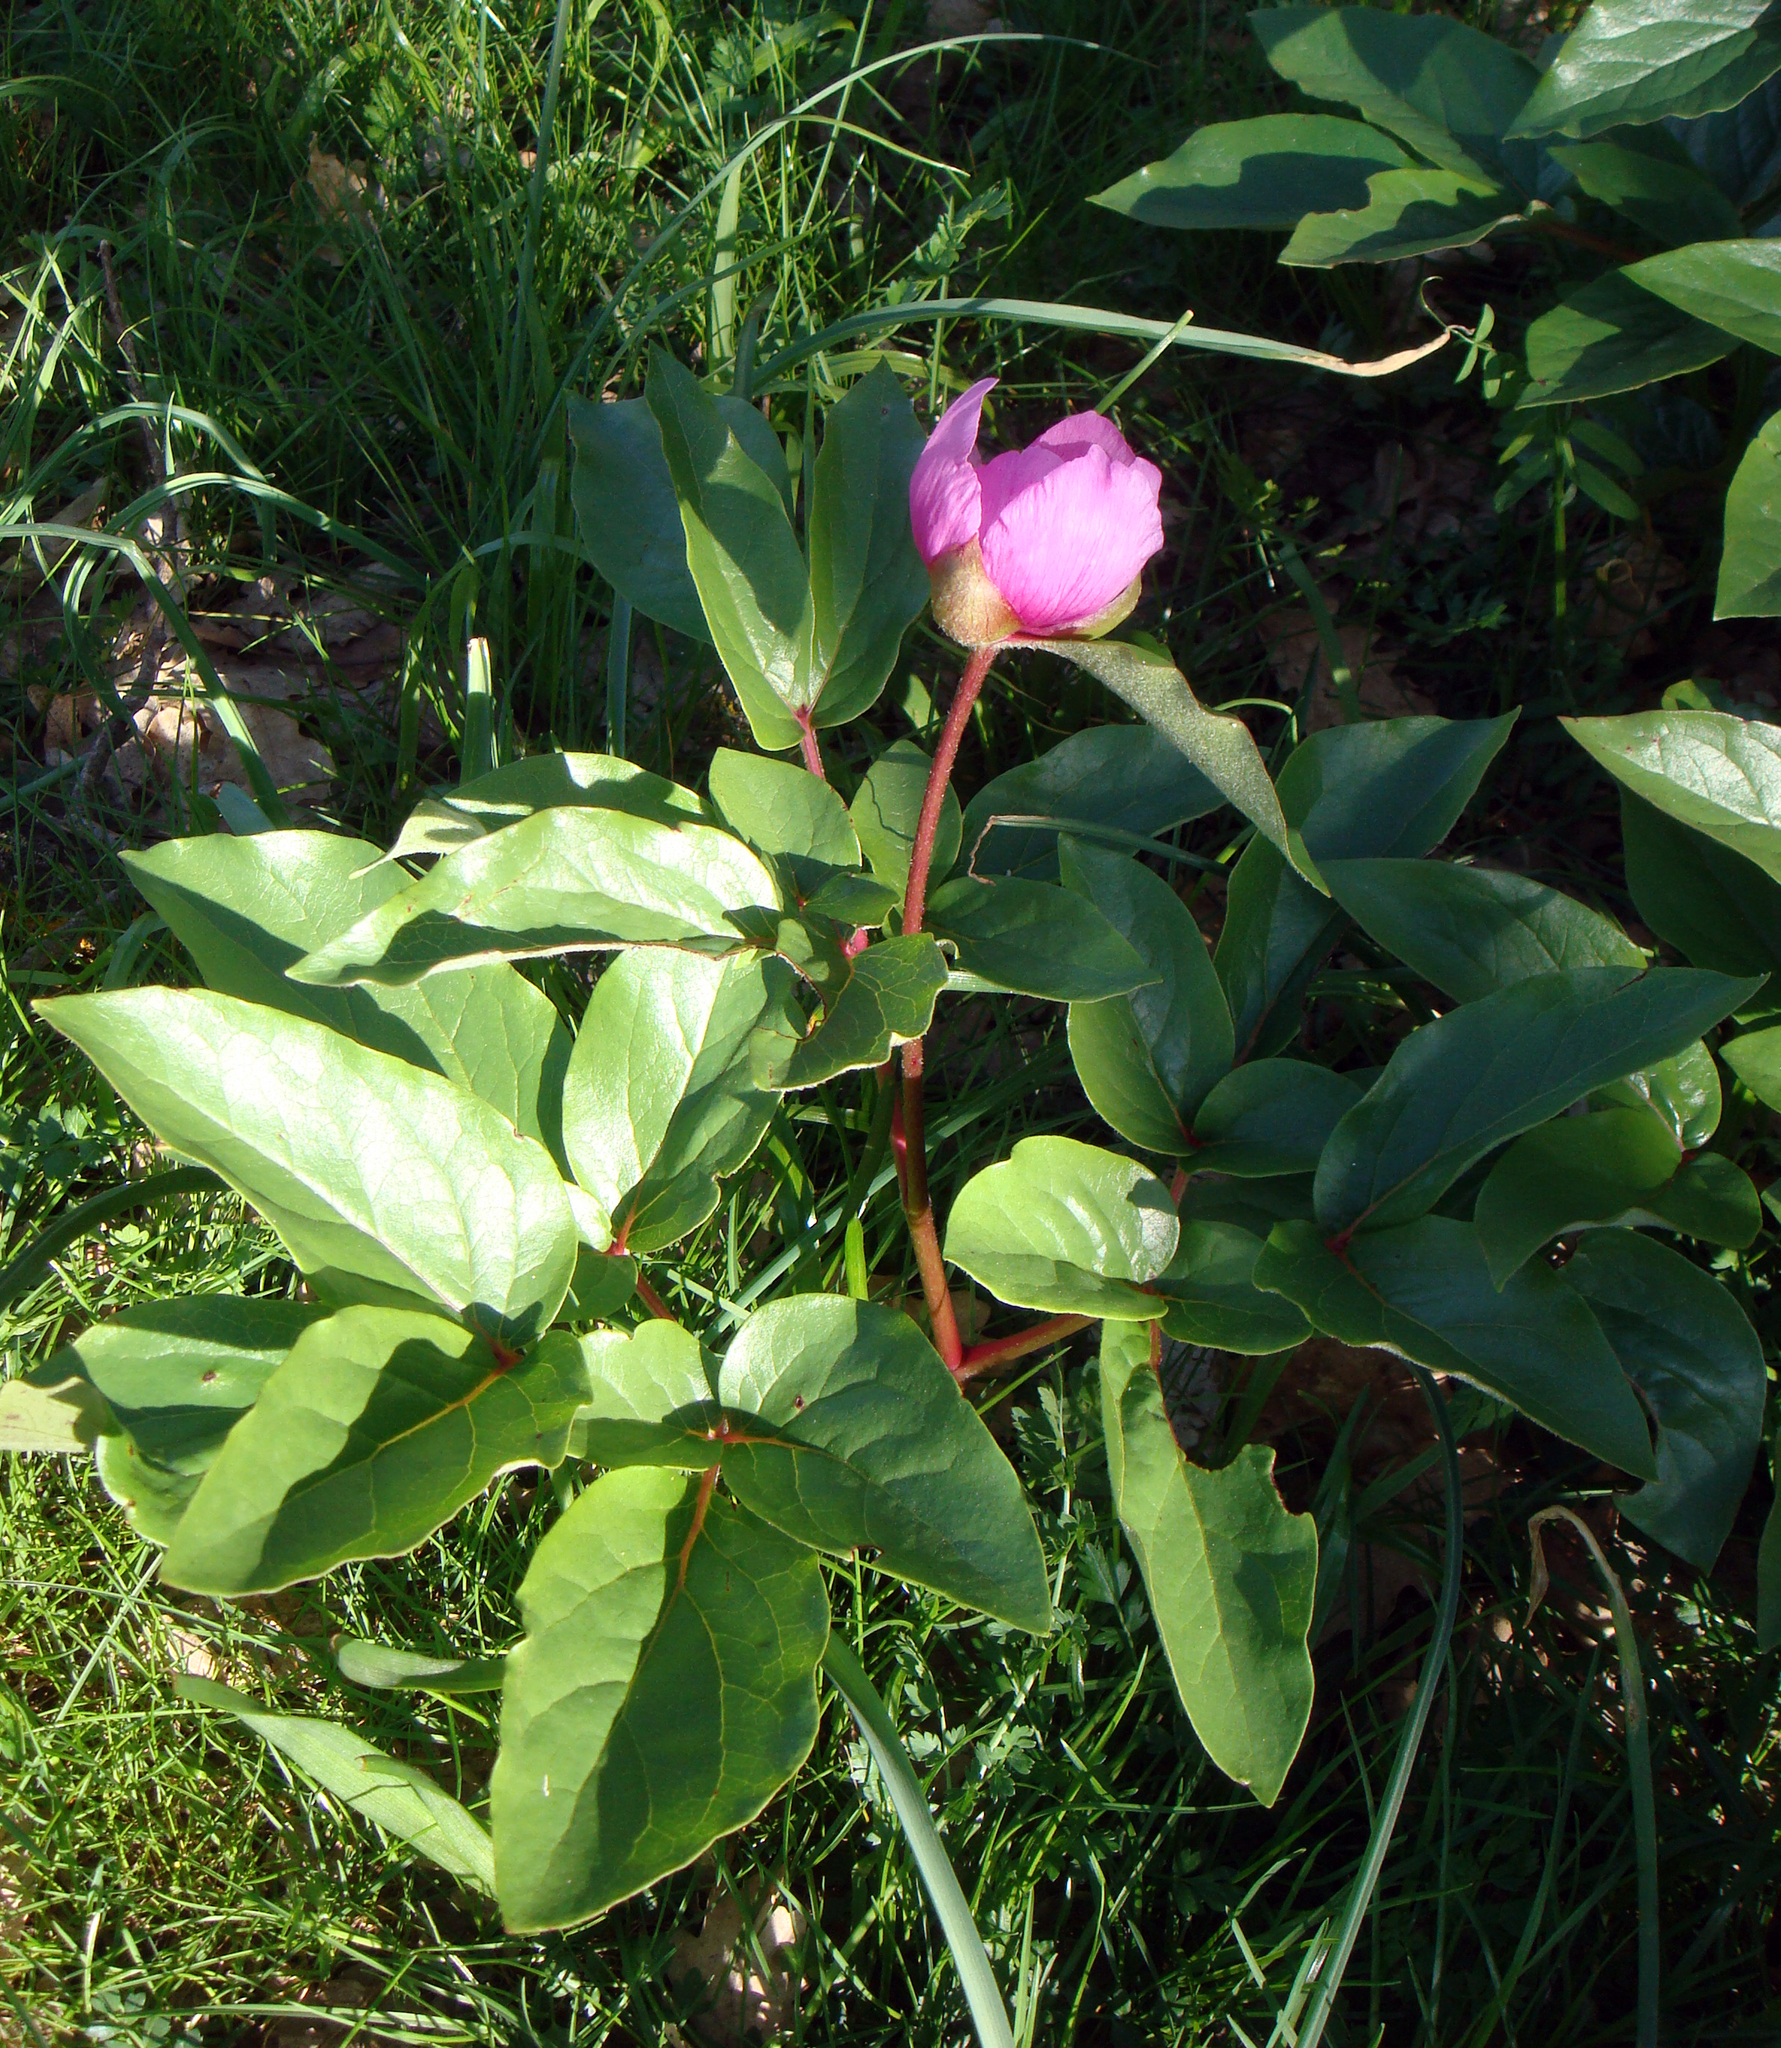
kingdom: Plantae
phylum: Tracheophyta
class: Magnoliopsida
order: Saxifragales
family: Paeoniaceae
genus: Paeonia
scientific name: Paeonia corsica
